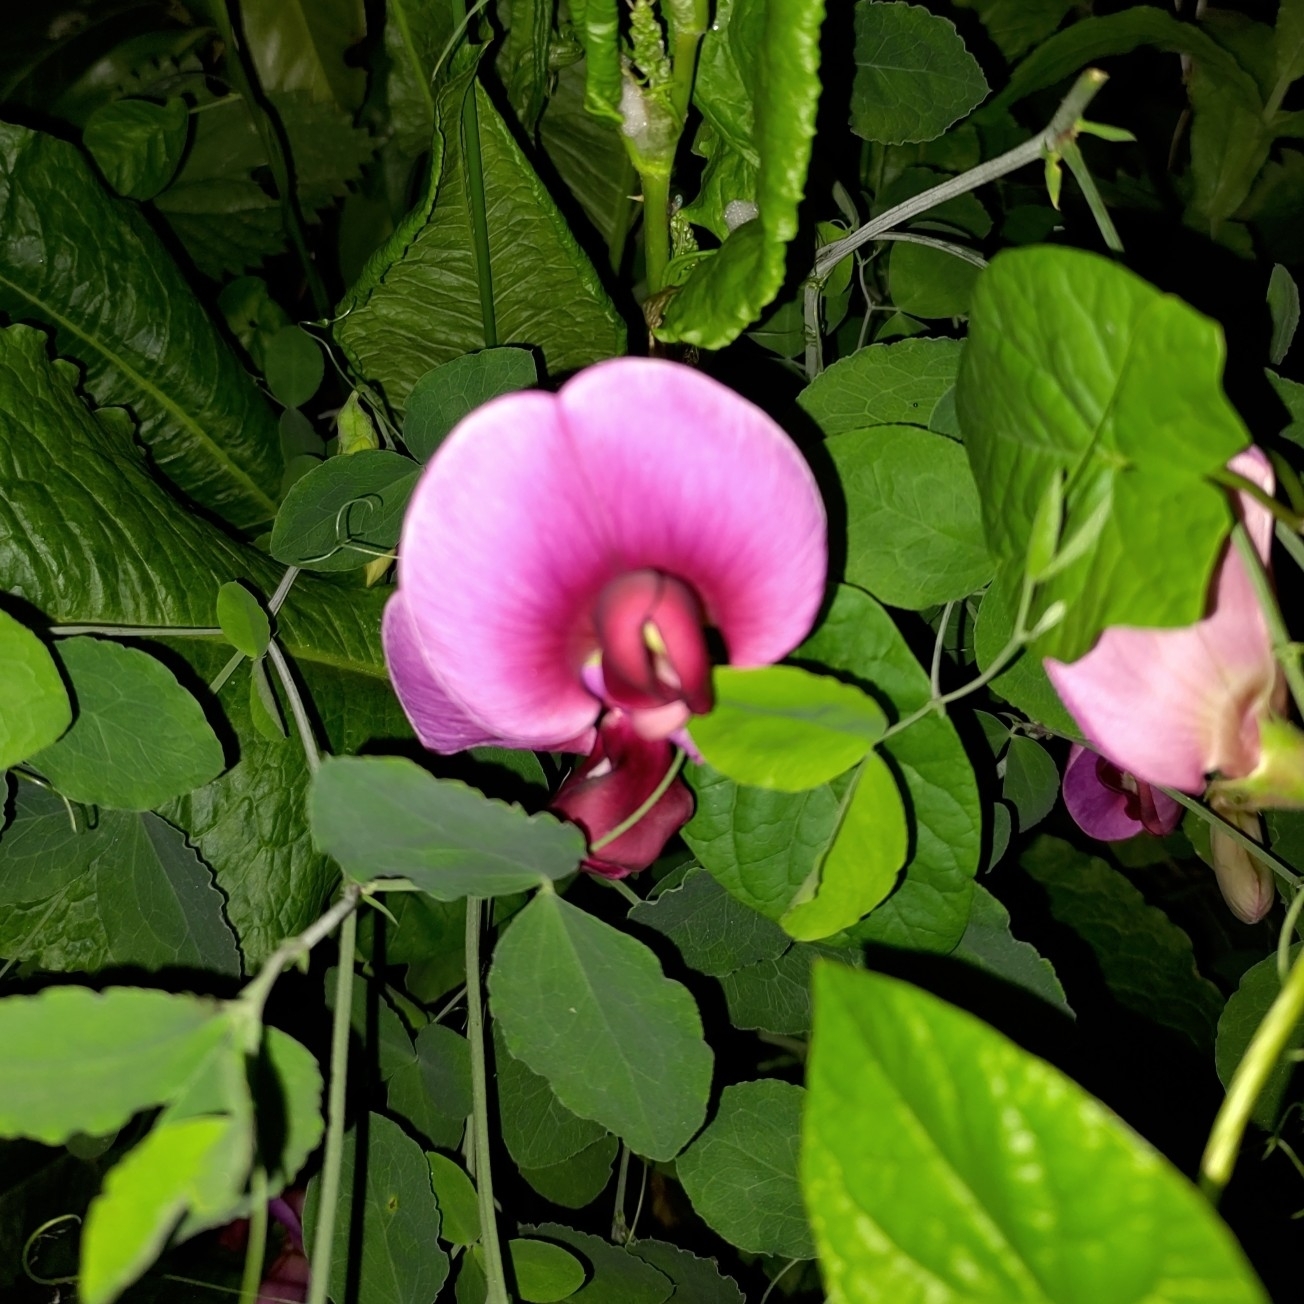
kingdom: Plantae
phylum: Tracheophyta
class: Magnoliopsida
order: Fabales
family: Fabaceae
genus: Lathyrus
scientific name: Lathyrus grandiflorus
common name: Two-flowered everlasting-pea
